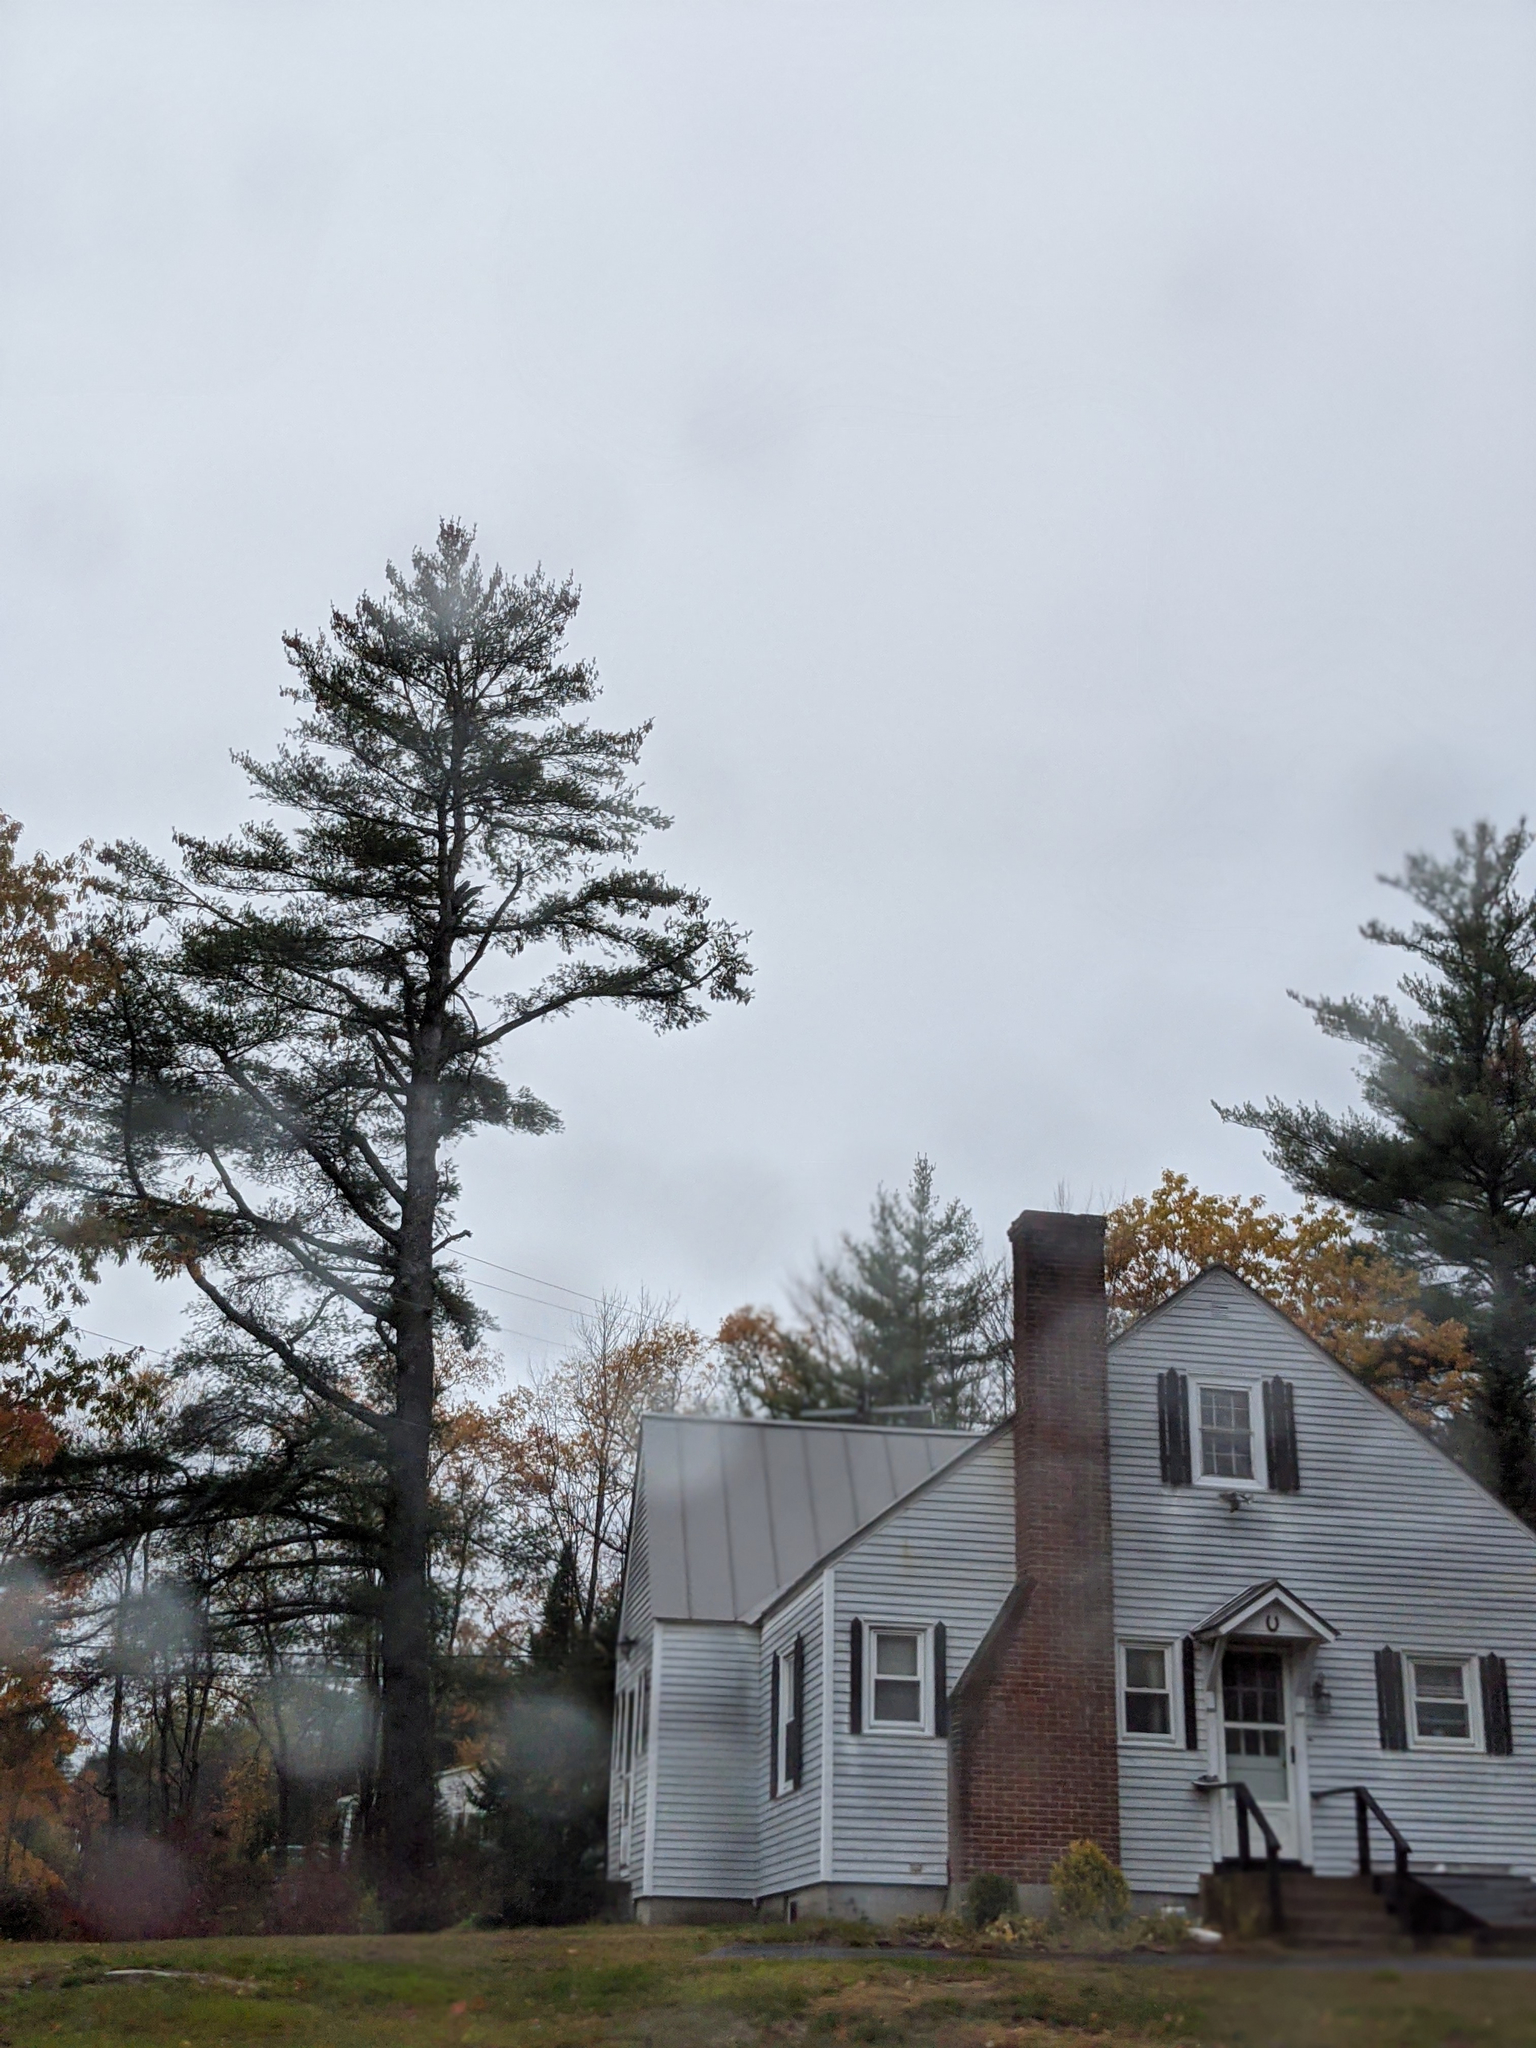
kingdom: Plantae
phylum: Tracheophyta
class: Pinopsida
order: Pinales
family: Pinaceae
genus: Pinus
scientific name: Pinus strobus
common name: Weymouth pine
